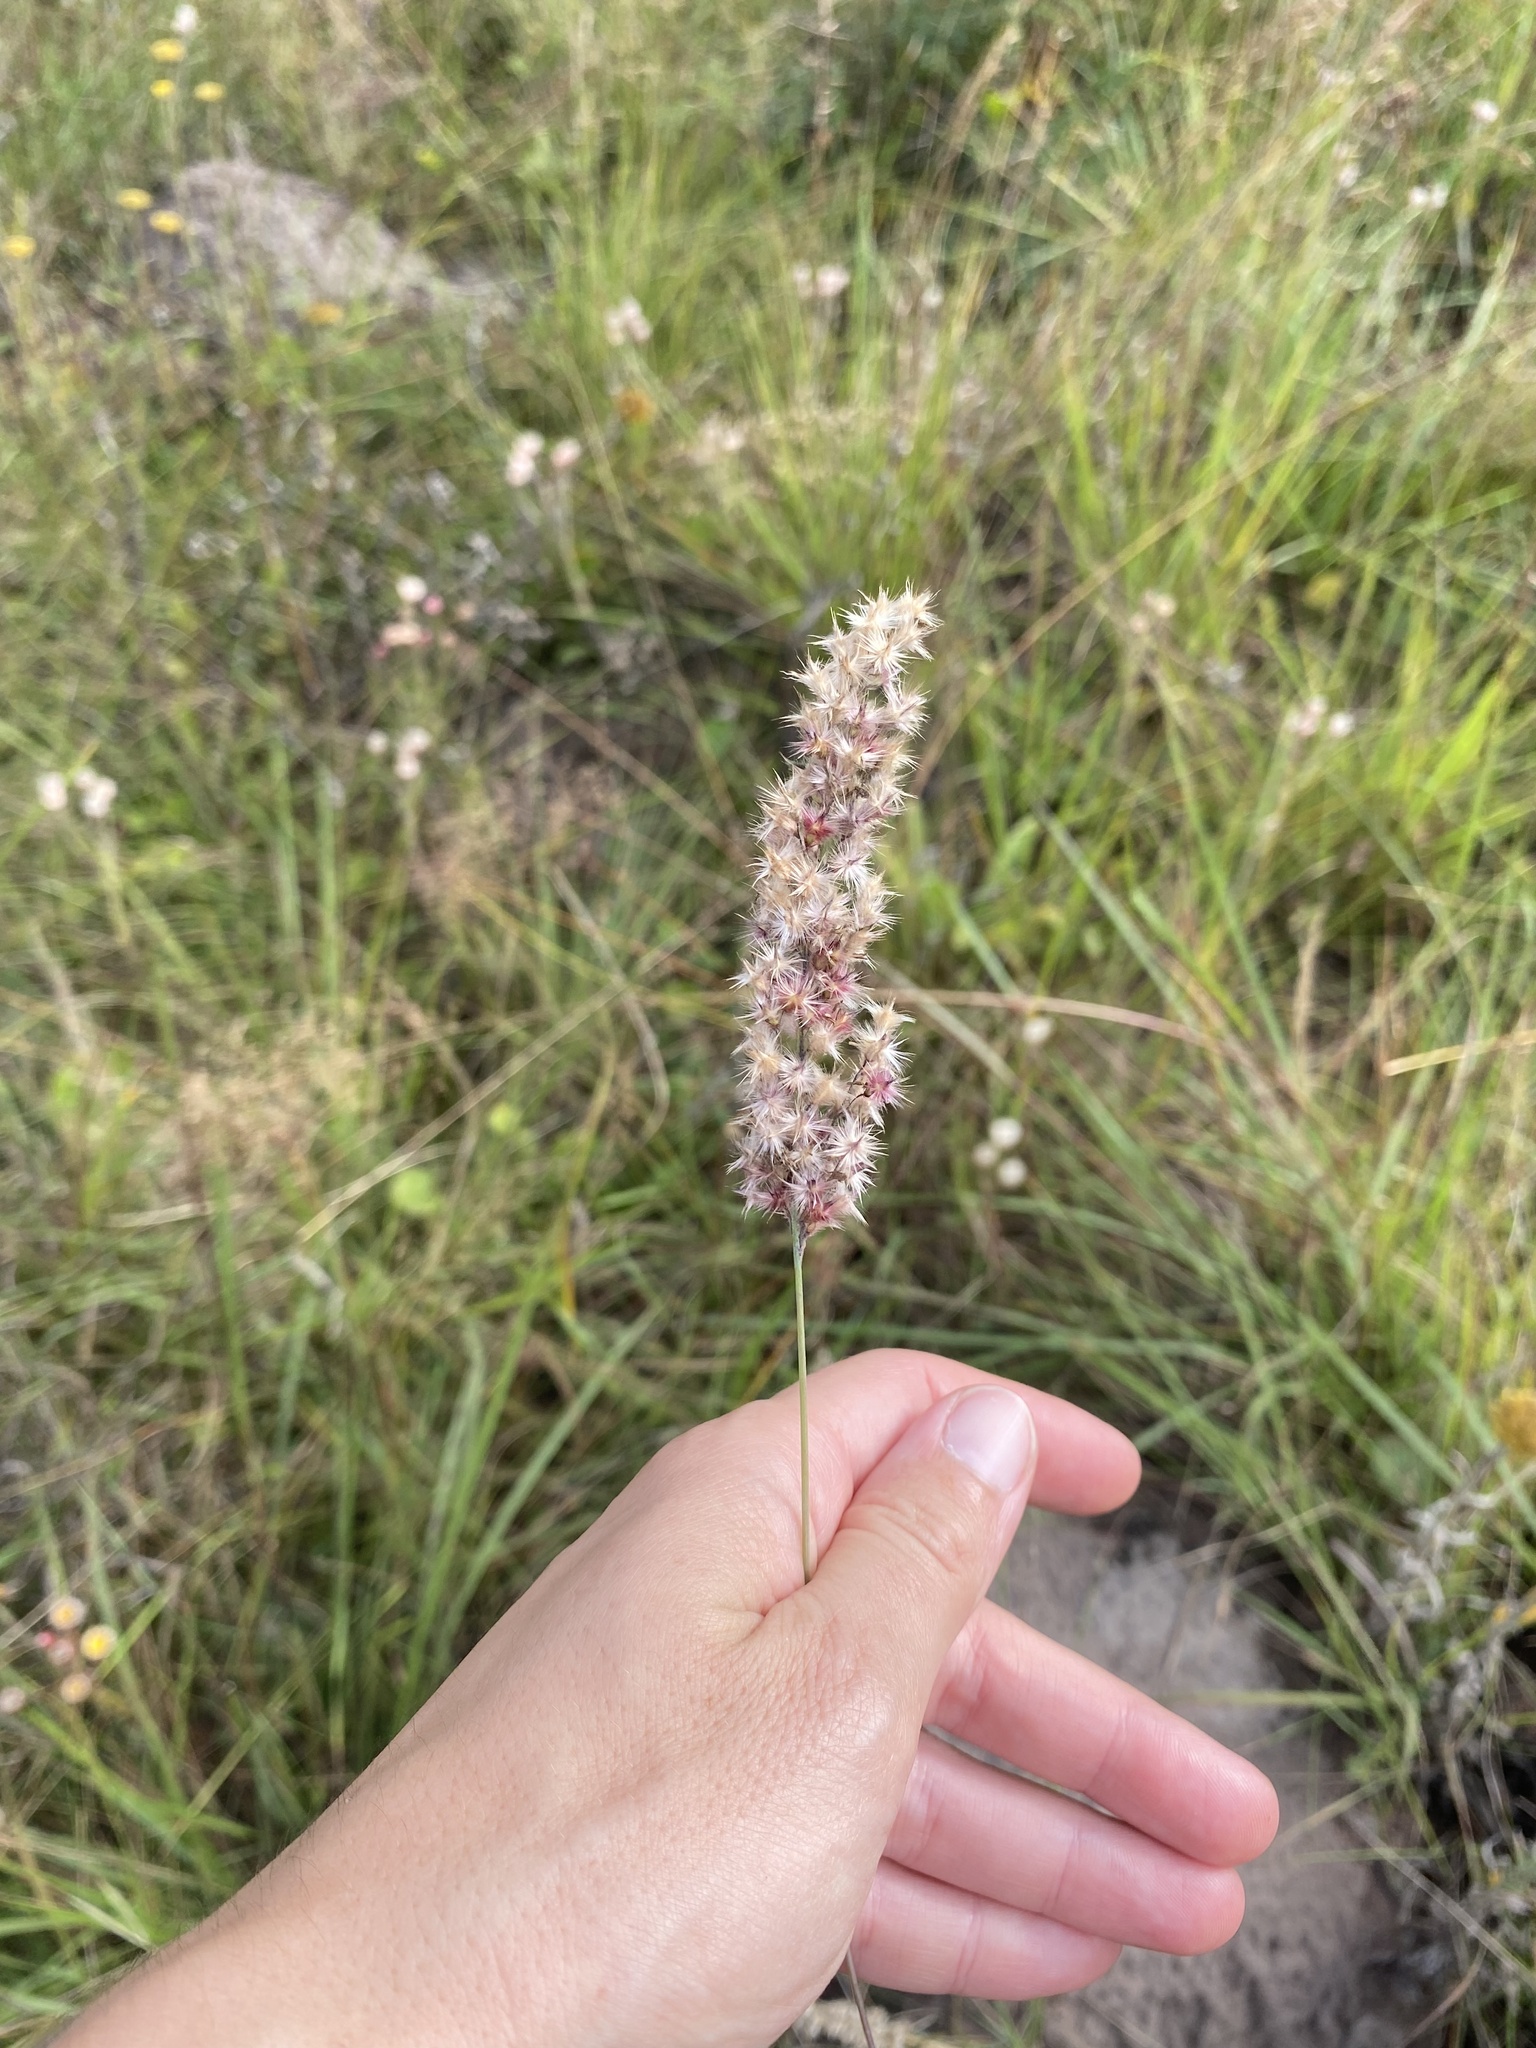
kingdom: Plantae
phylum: Tracheophyta
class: Liliopsida
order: Poales
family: Poaceae
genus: Melinis
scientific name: Melinis nerviglumis
